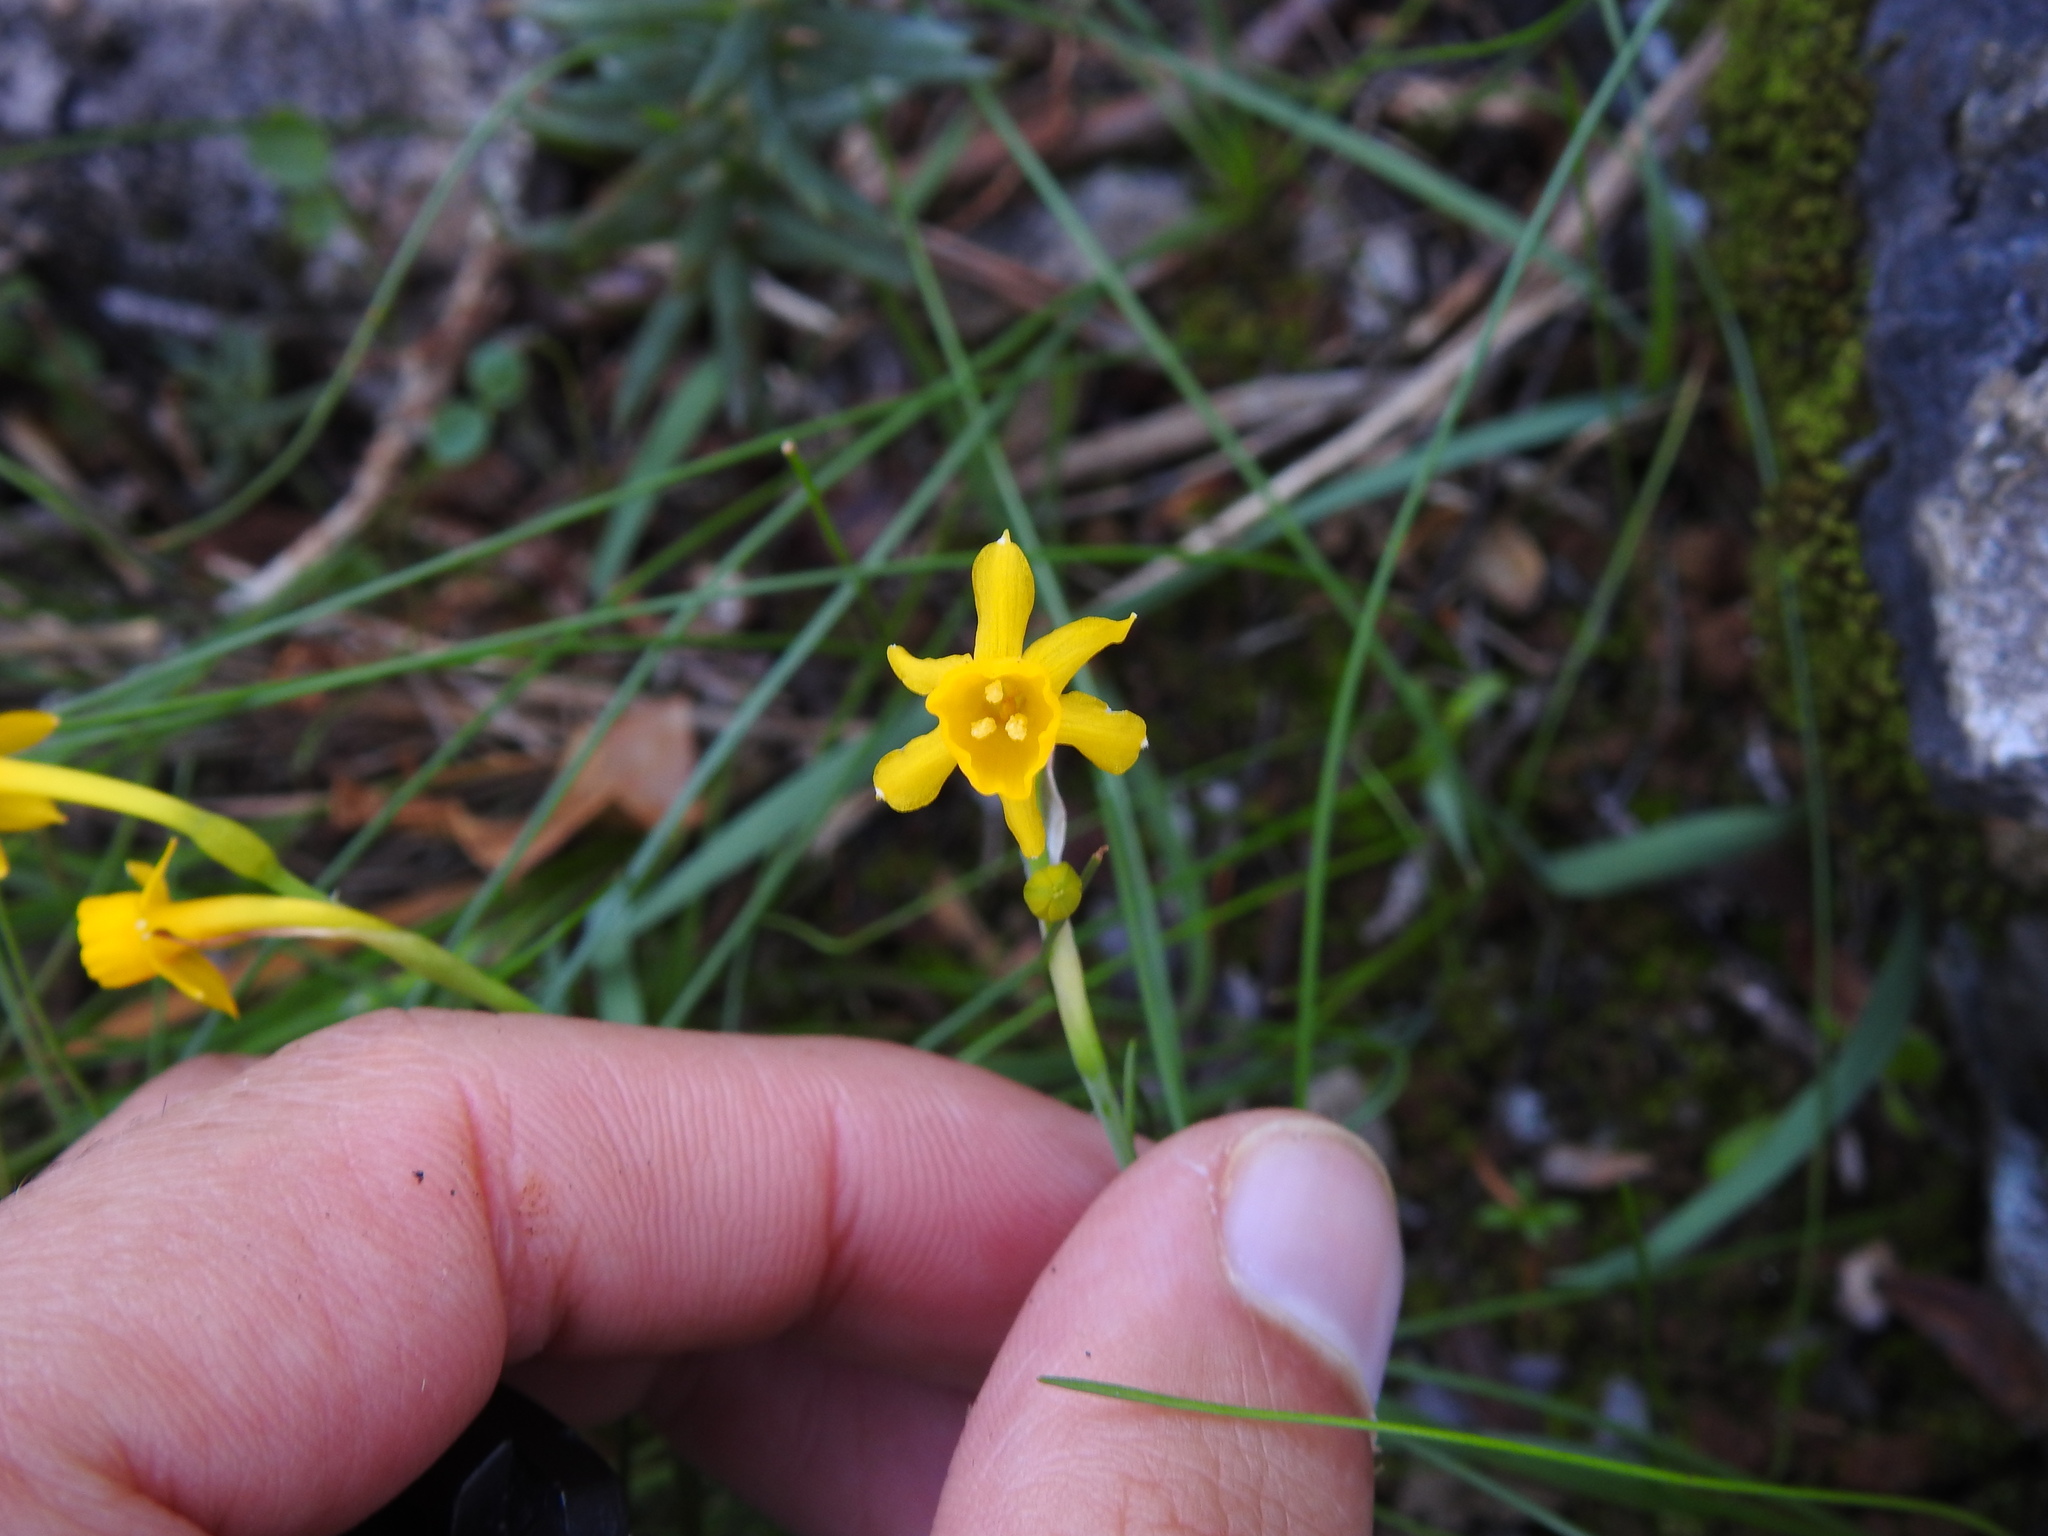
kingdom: Plantae
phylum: Tracheophyta
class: Liliopsida
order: Asparagales
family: Amaryllidaceae
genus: Narcissus
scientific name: Narcissus gaditanus
